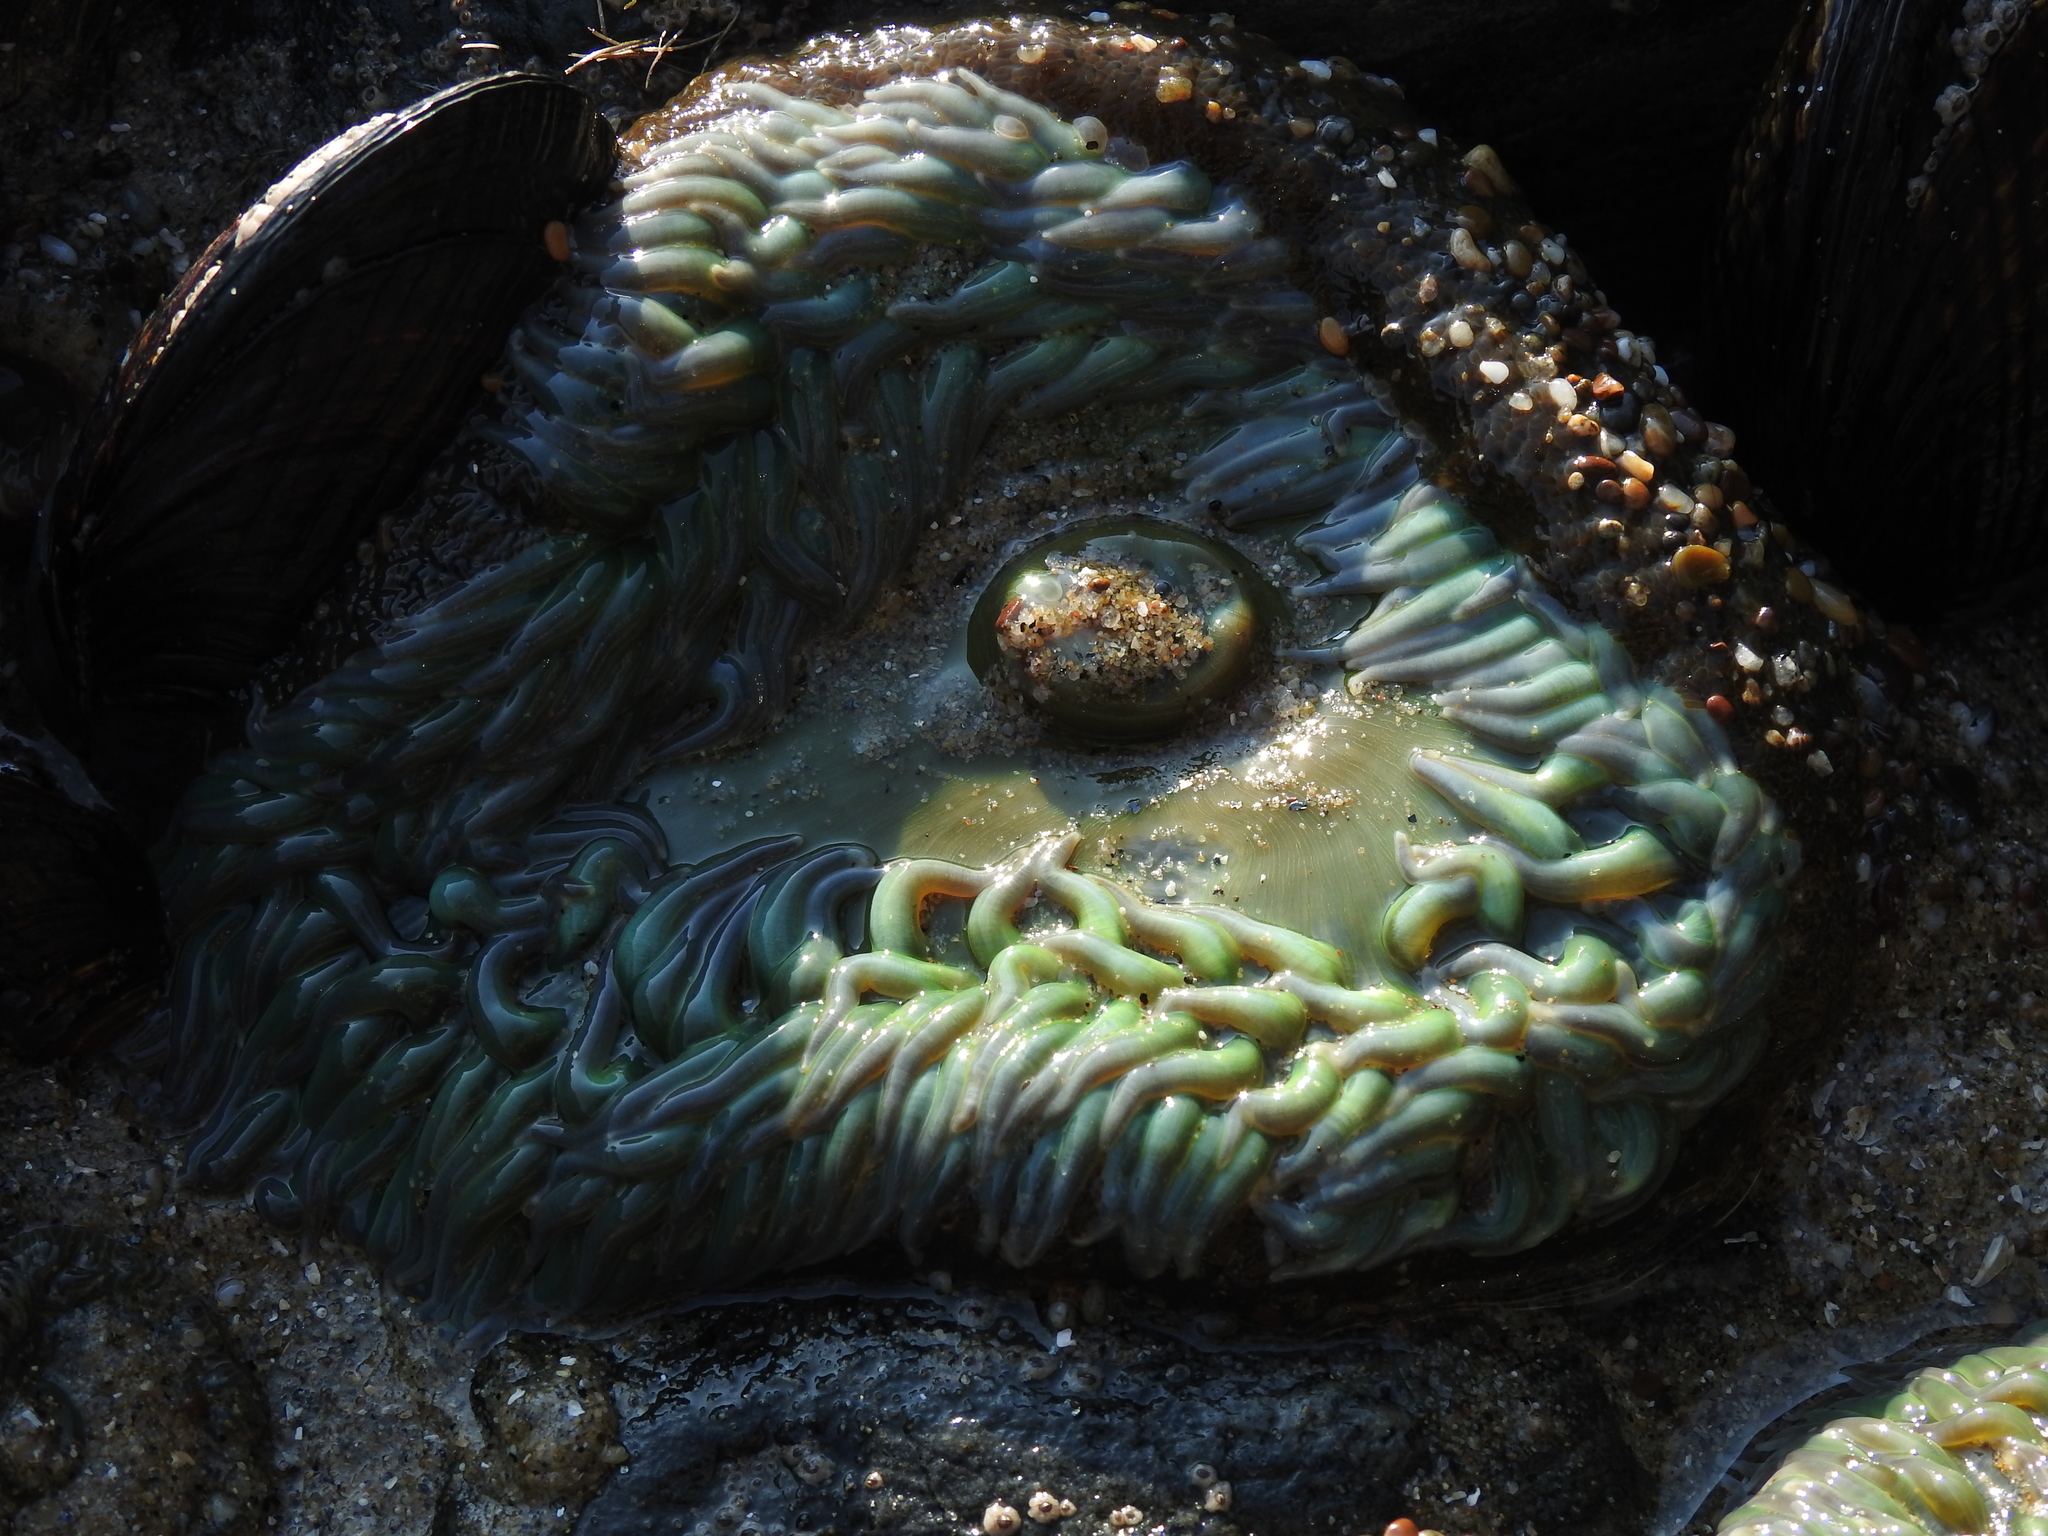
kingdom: Animalia
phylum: Cnidaria
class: Anthozoa
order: Actiniaria
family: Actiniidae
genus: Anthopleura
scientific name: Anthopleura xanthogrammica
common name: Giant green anemone
